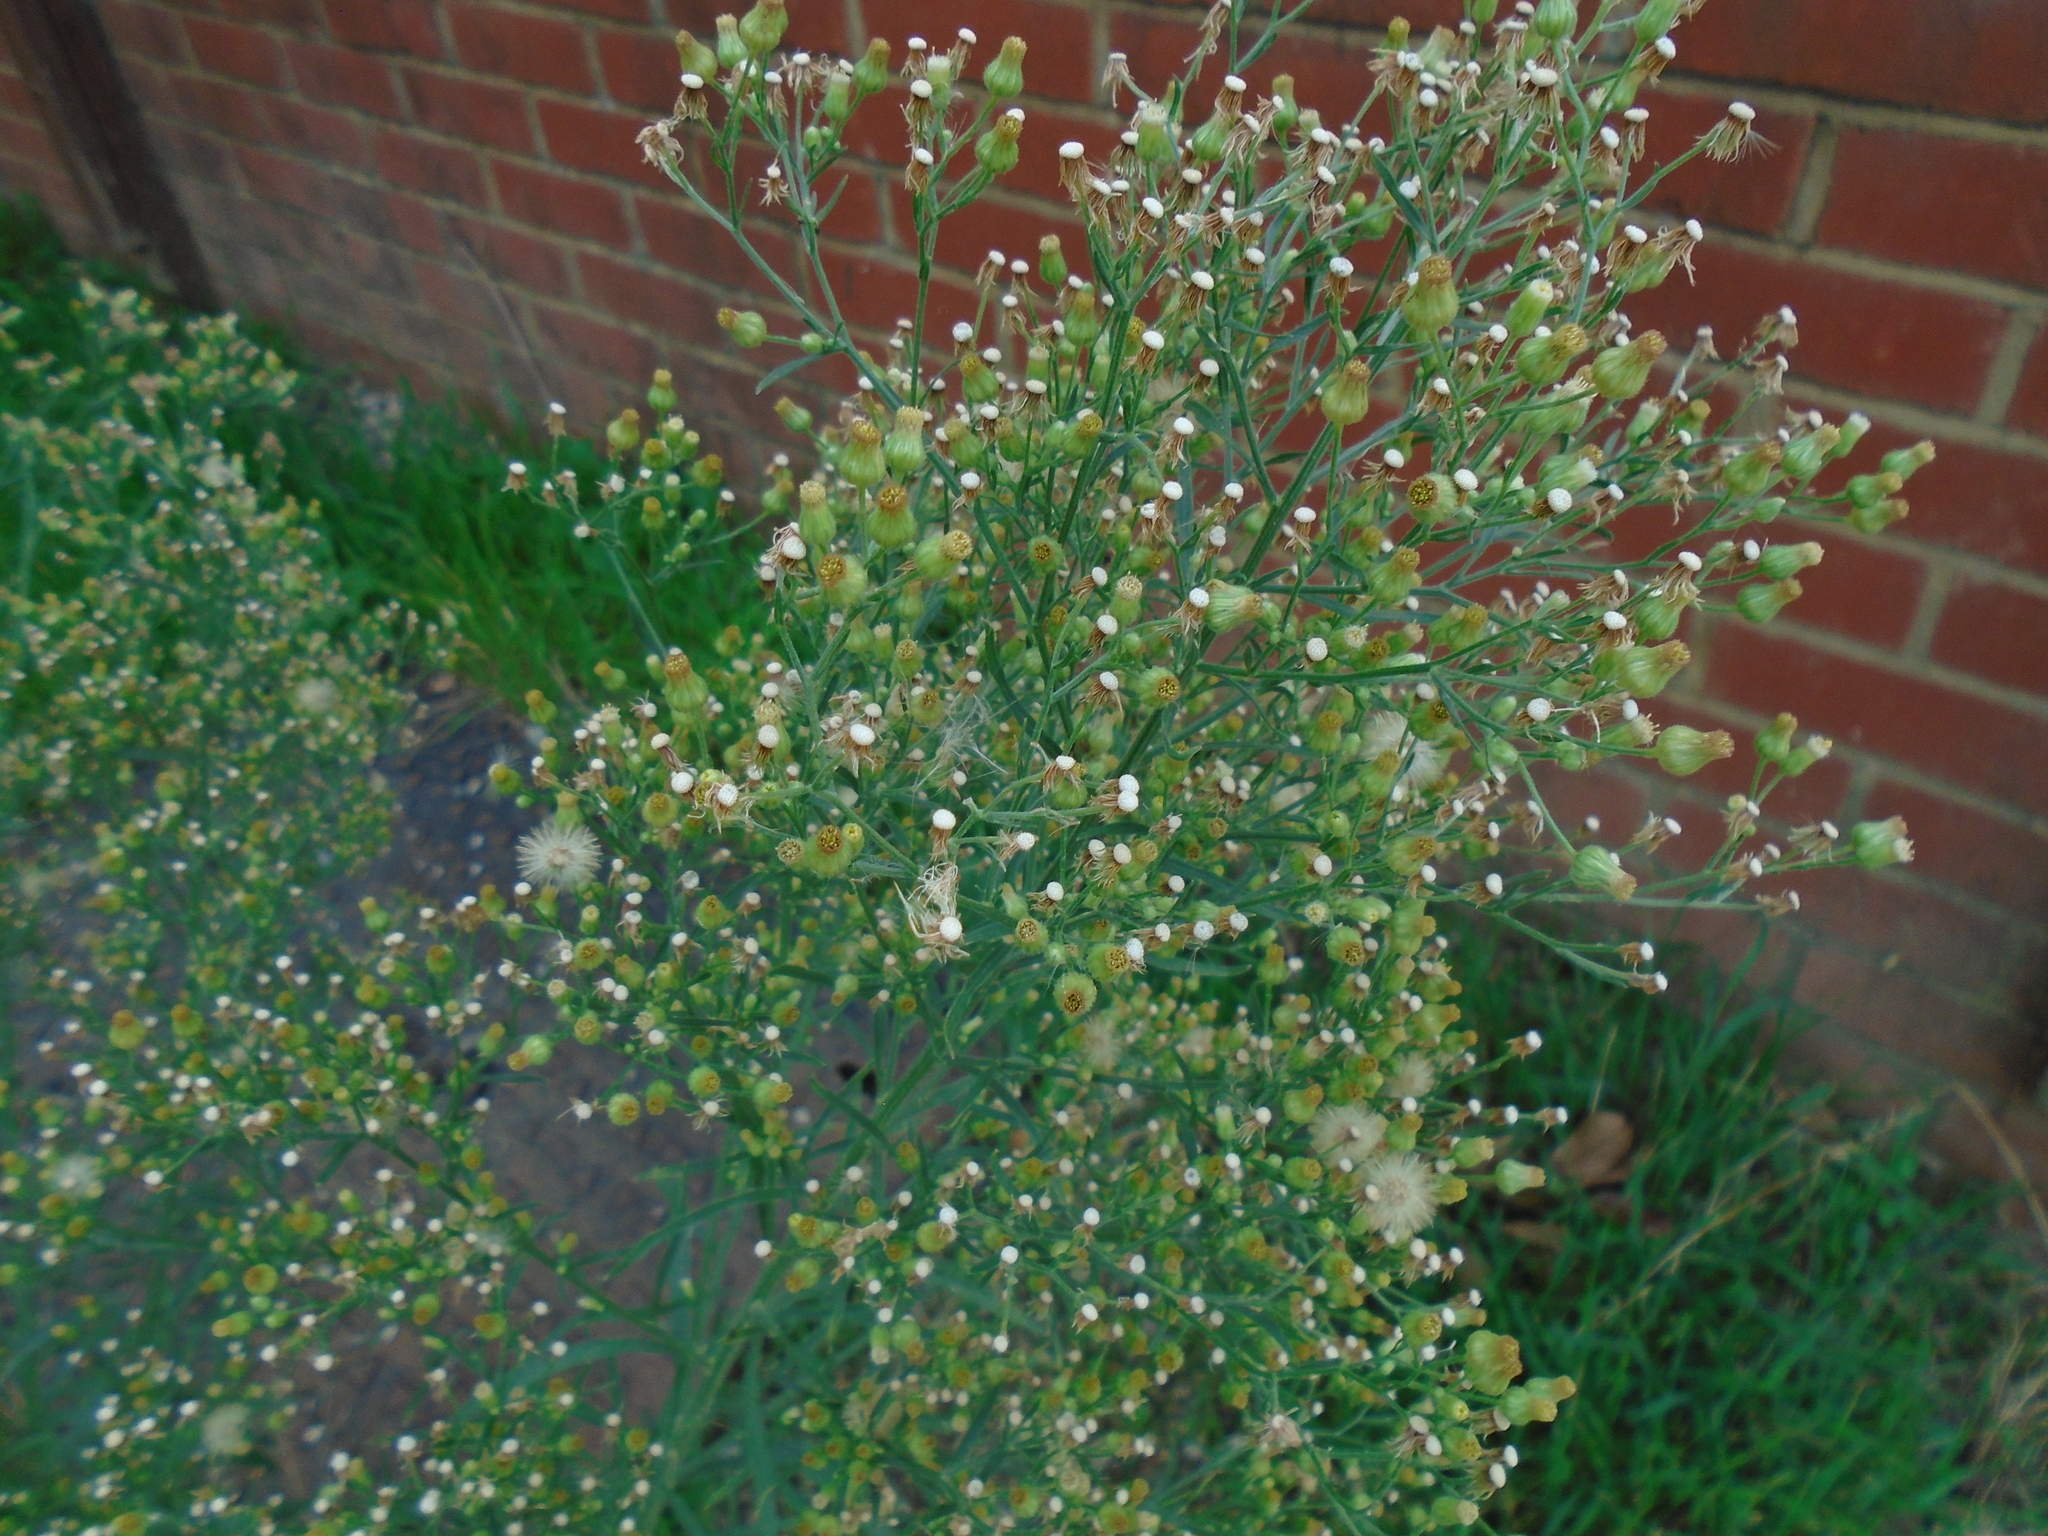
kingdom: Plantae
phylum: Tracheophyta
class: Magnoliopsida
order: Asterales
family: Asteraceae
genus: Erigeron
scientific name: Erigeron sumatrensis
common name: Daisy
